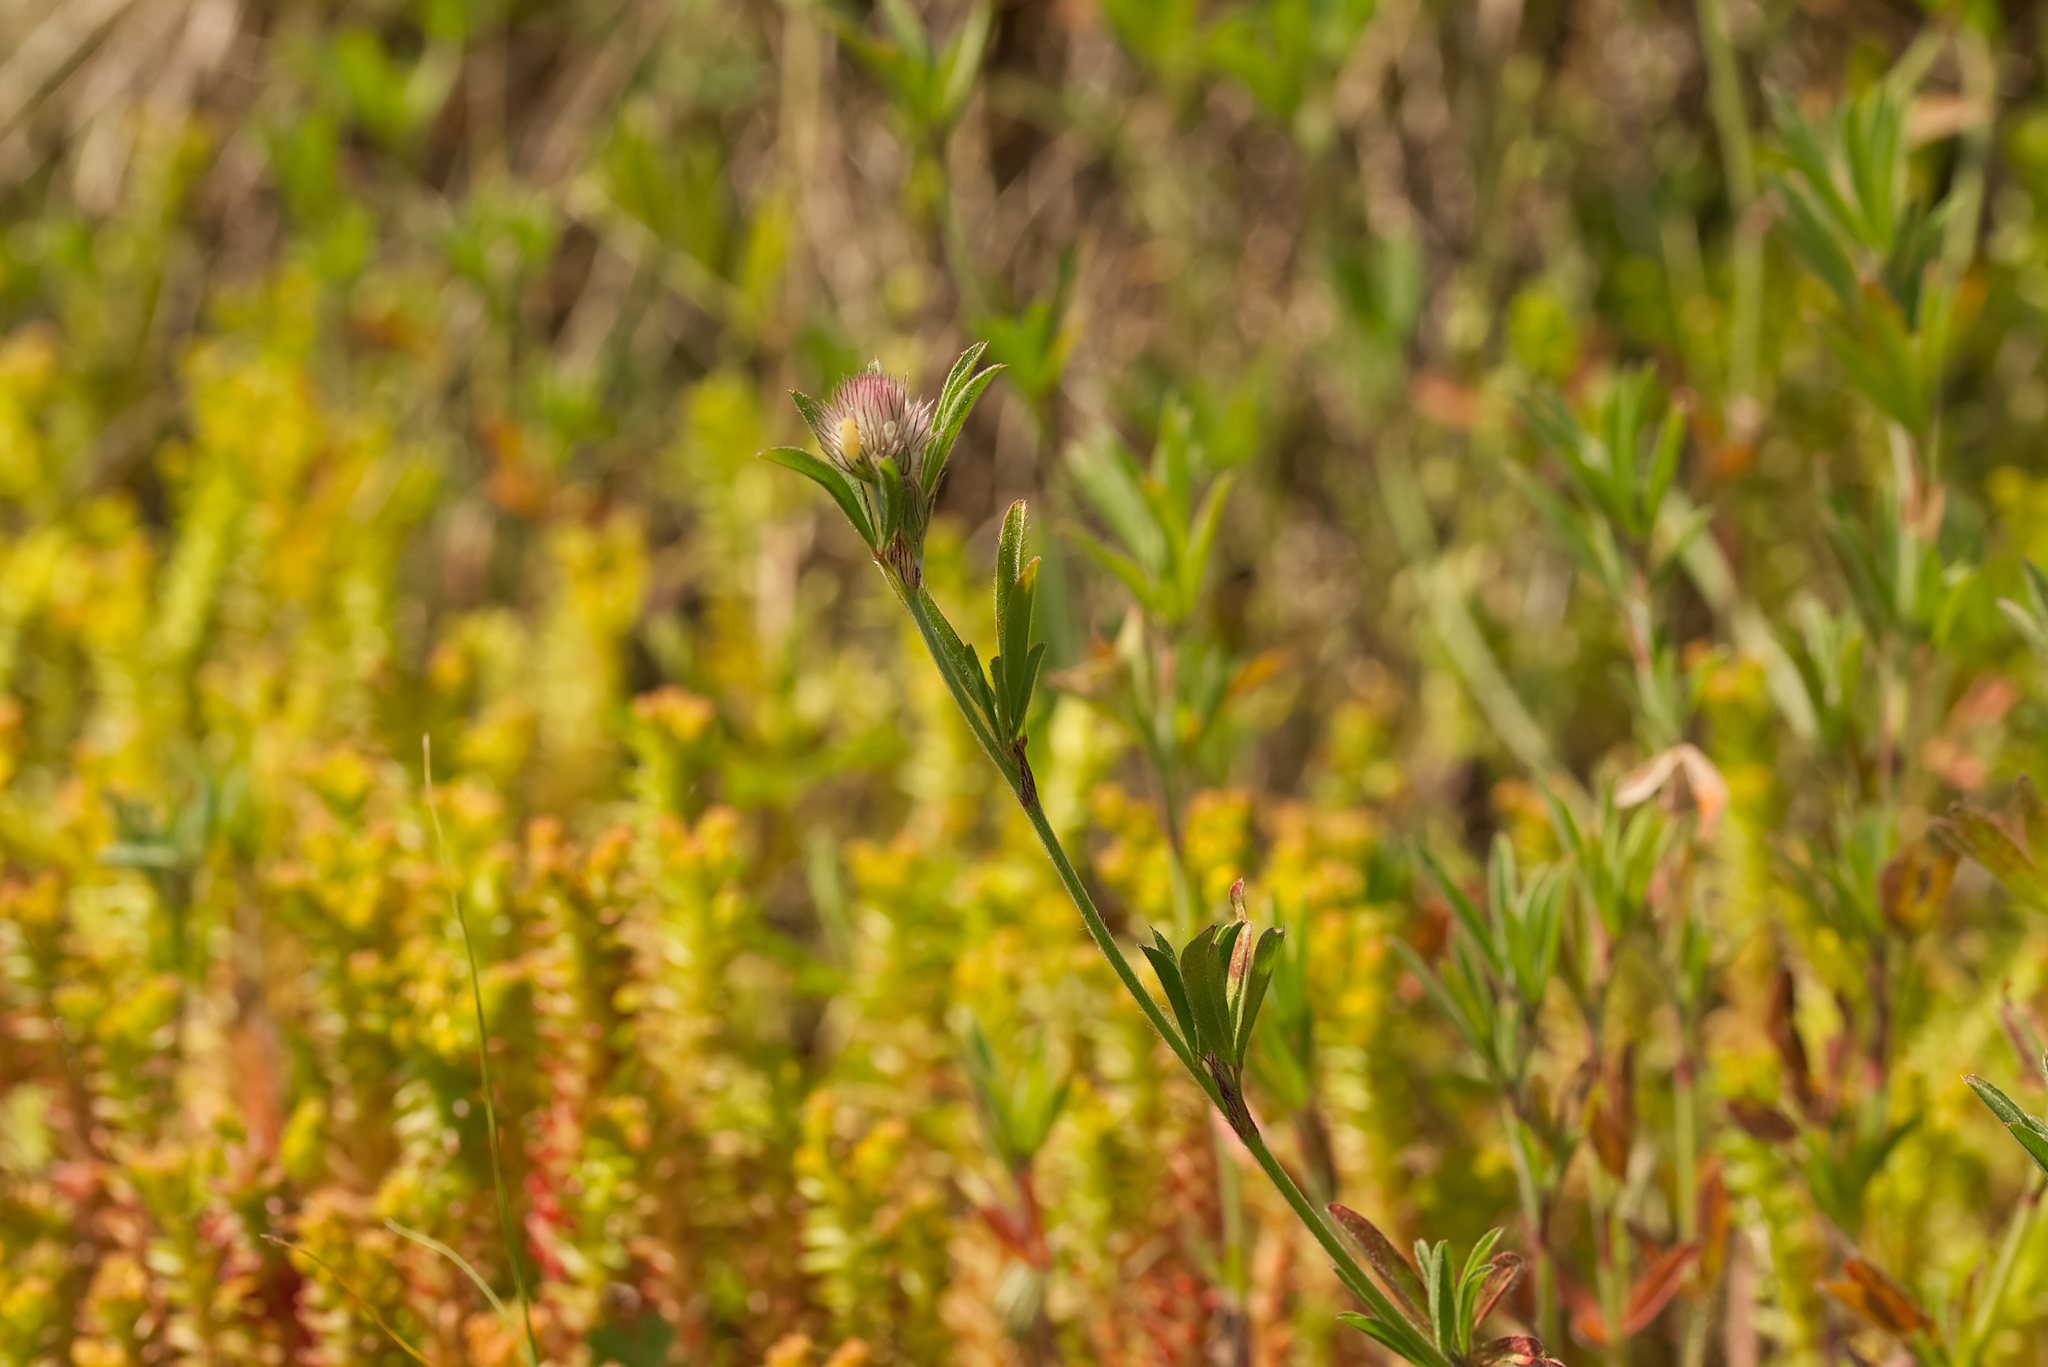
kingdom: Plantae
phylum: Tracheophyta
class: Magnoliopsida
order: Fabales
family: Fabaceae
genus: Trifolium
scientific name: Trifolium arvense
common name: Hare's-foot clover
